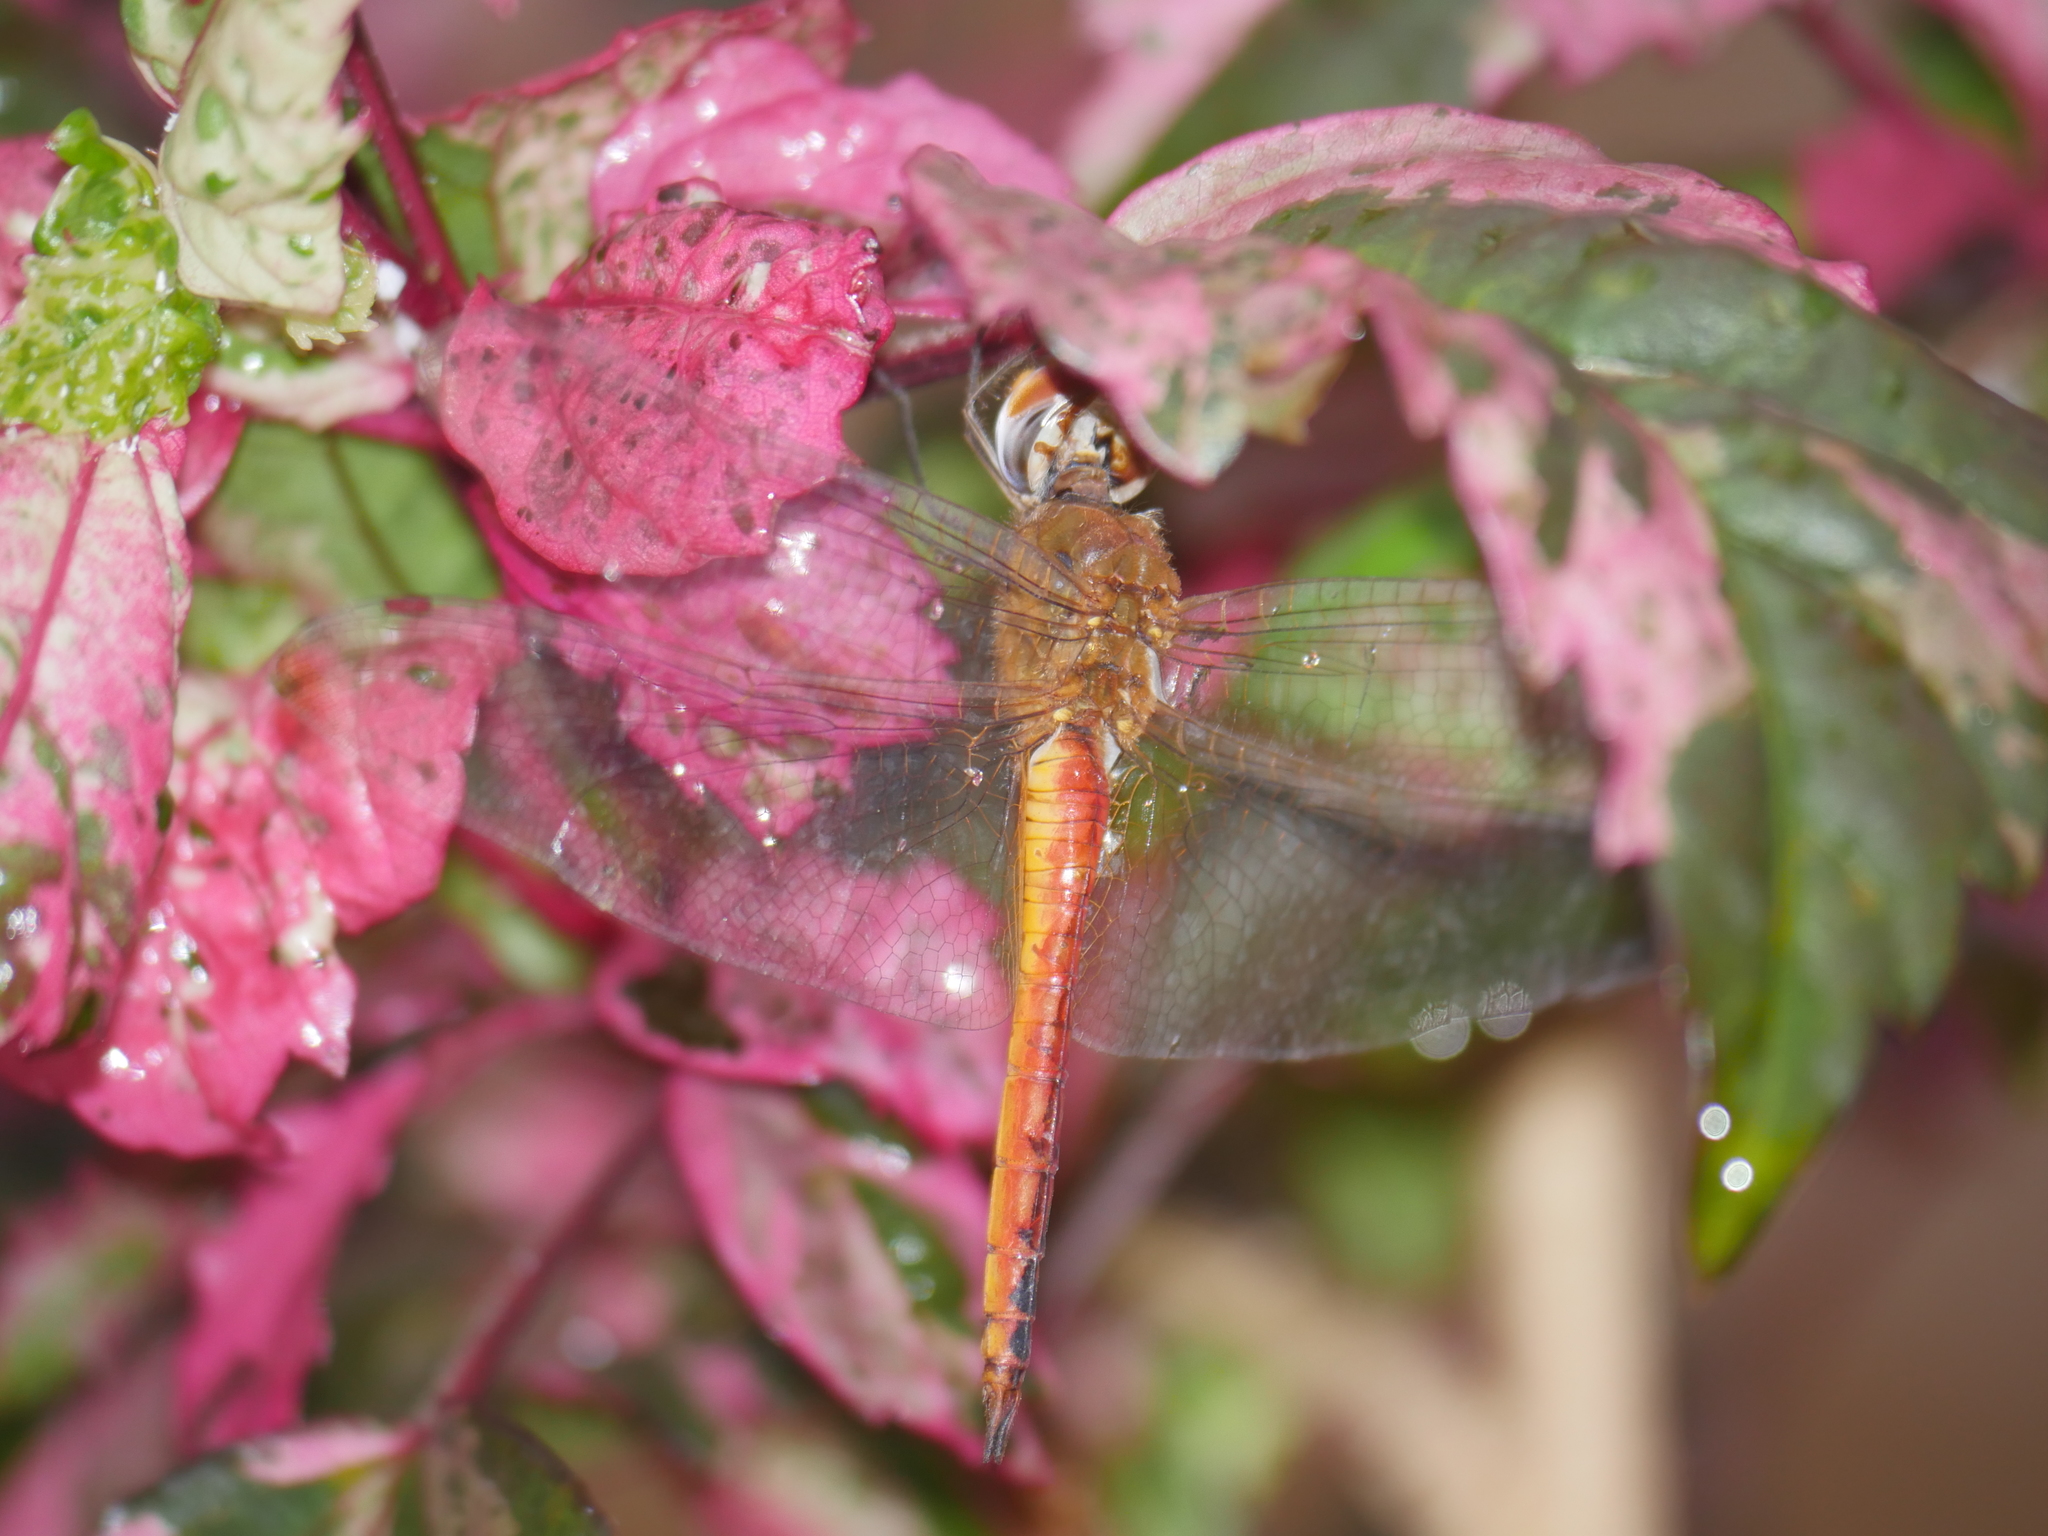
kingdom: Animalia
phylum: Arthropoda
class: Insecta
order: Odonata
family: Libellulidae
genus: Pantala
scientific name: Pantala flavescens
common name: Wandering glider
